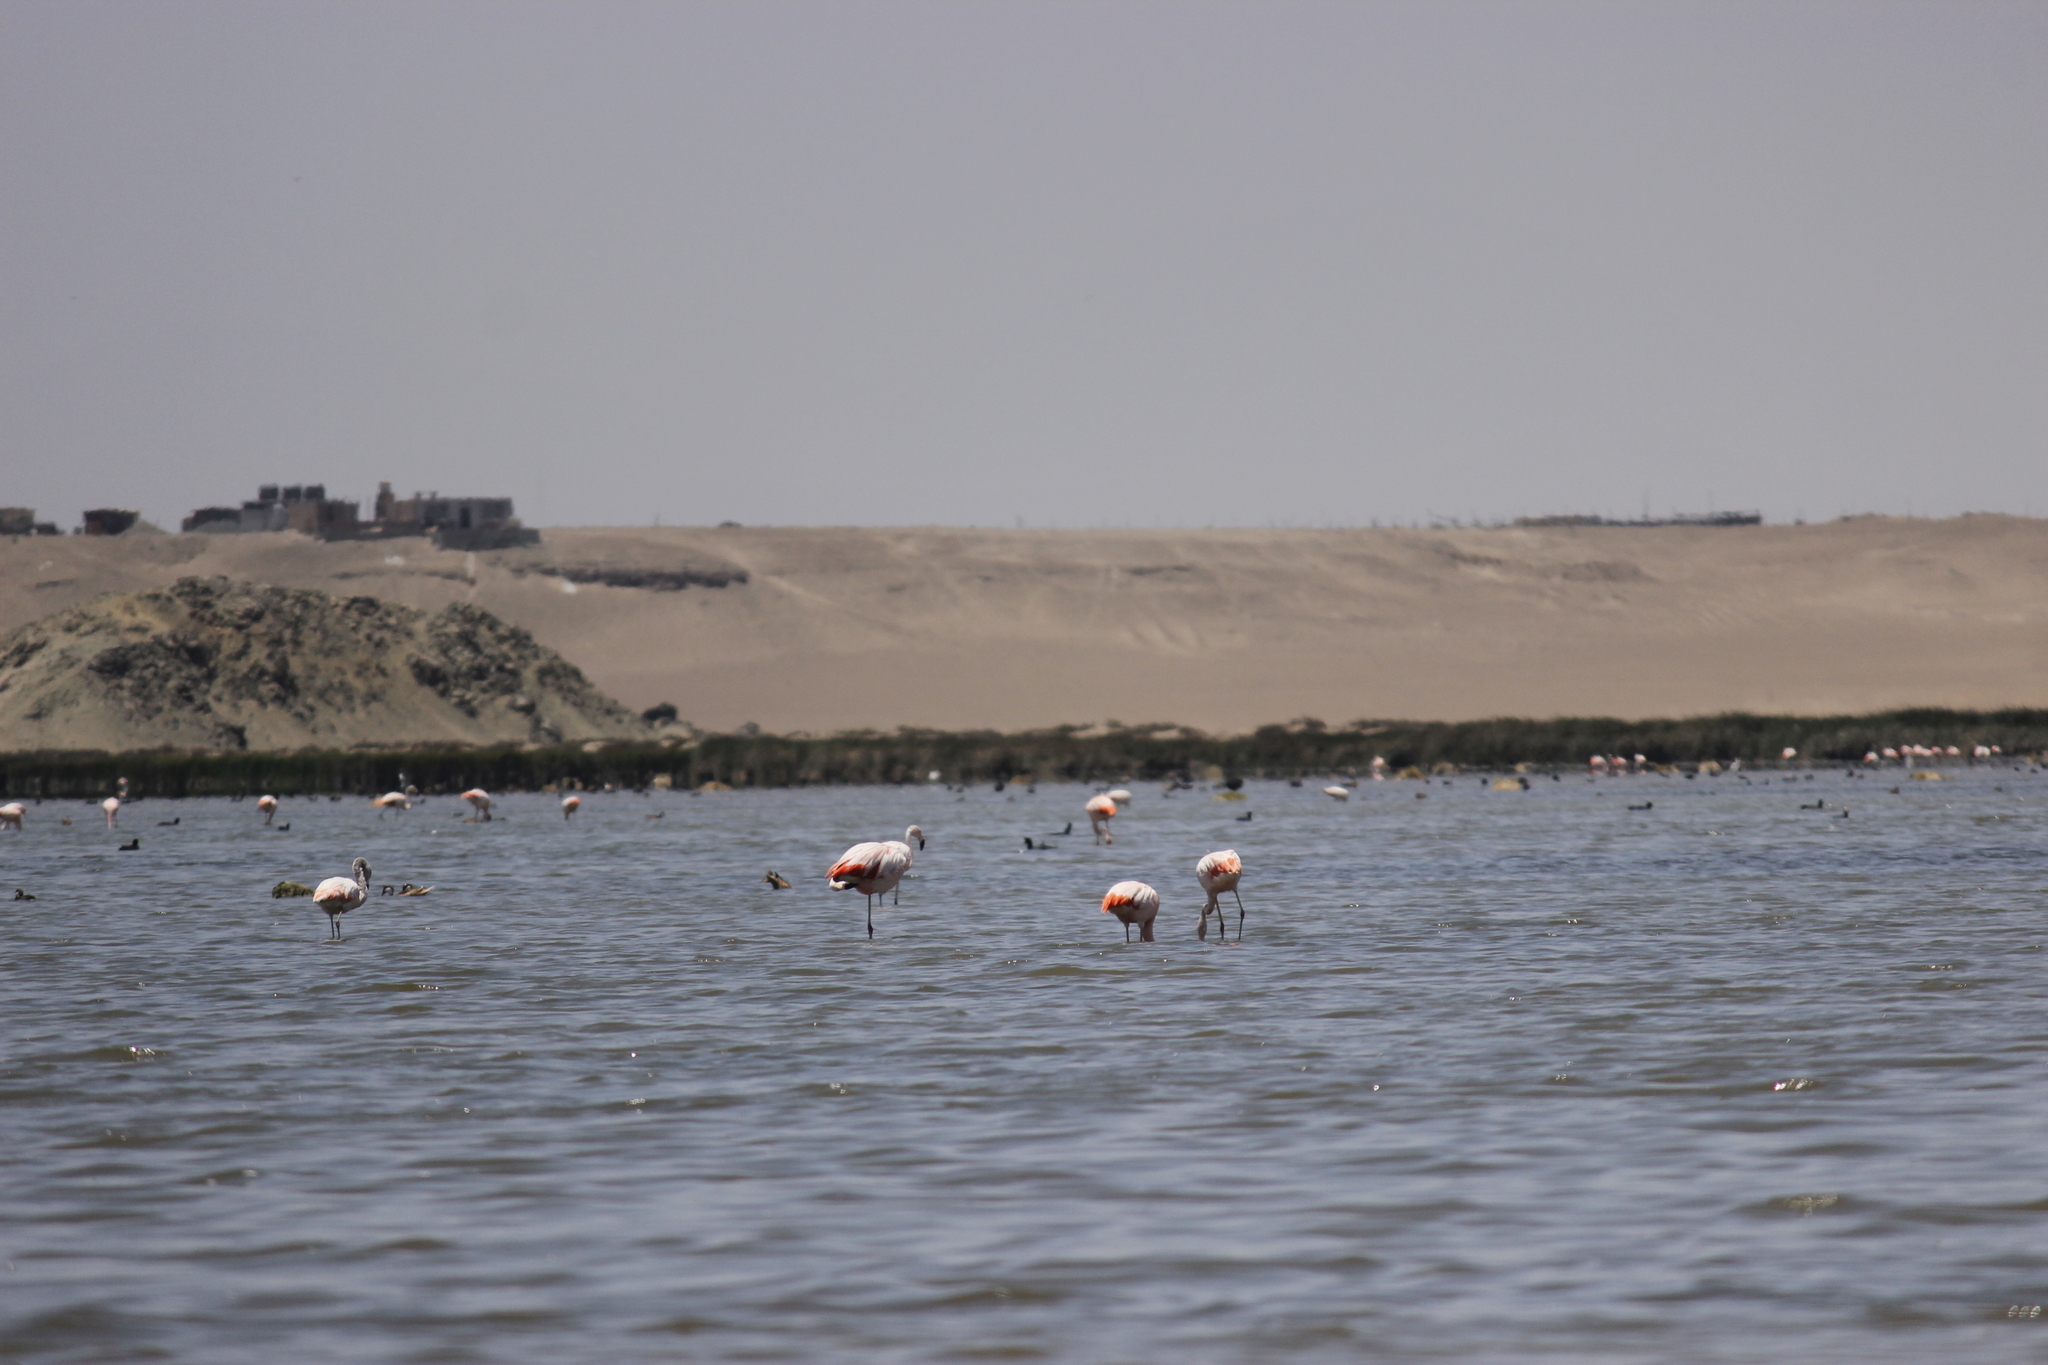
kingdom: Animalia
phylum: Chordata
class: Aves
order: Phoenicopteriformes
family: Phoenicopteridae
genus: Phoenicopterus
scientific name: Phoenicopterus chilensis
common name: Chilean flamingo
